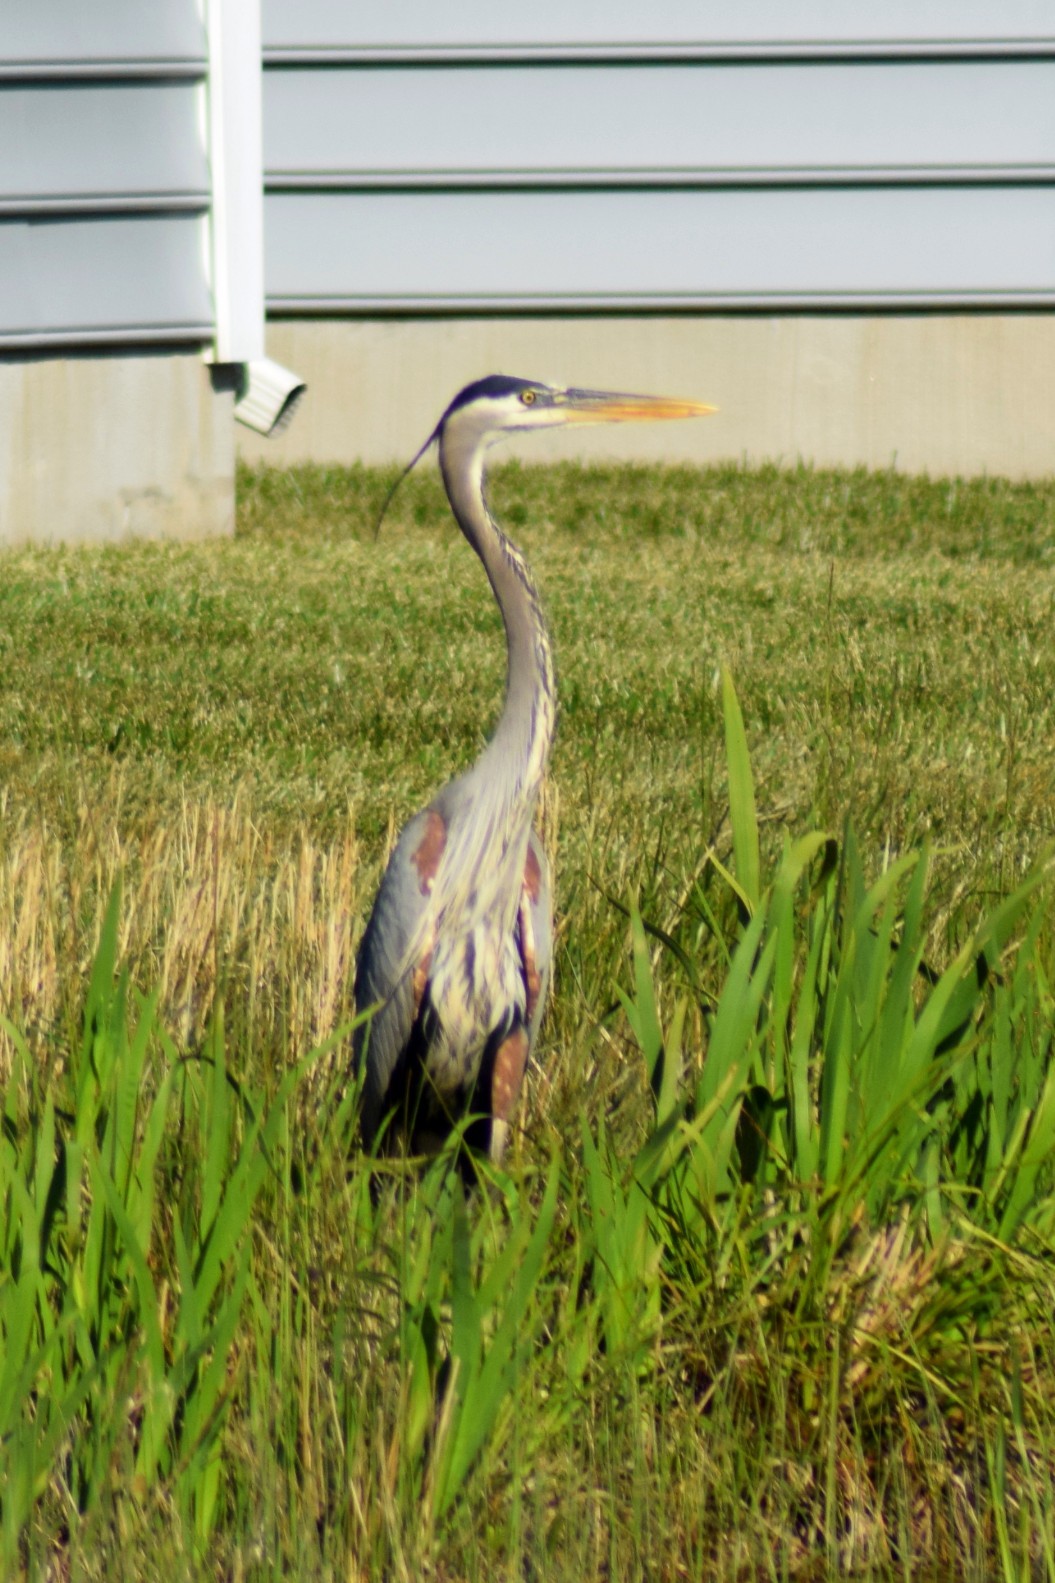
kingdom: Animalia
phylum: Chordata
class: Aves
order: Pelecaniformes
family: Ardeidae
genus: Ardea
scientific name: Ardea herodias
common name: Great blue heron
